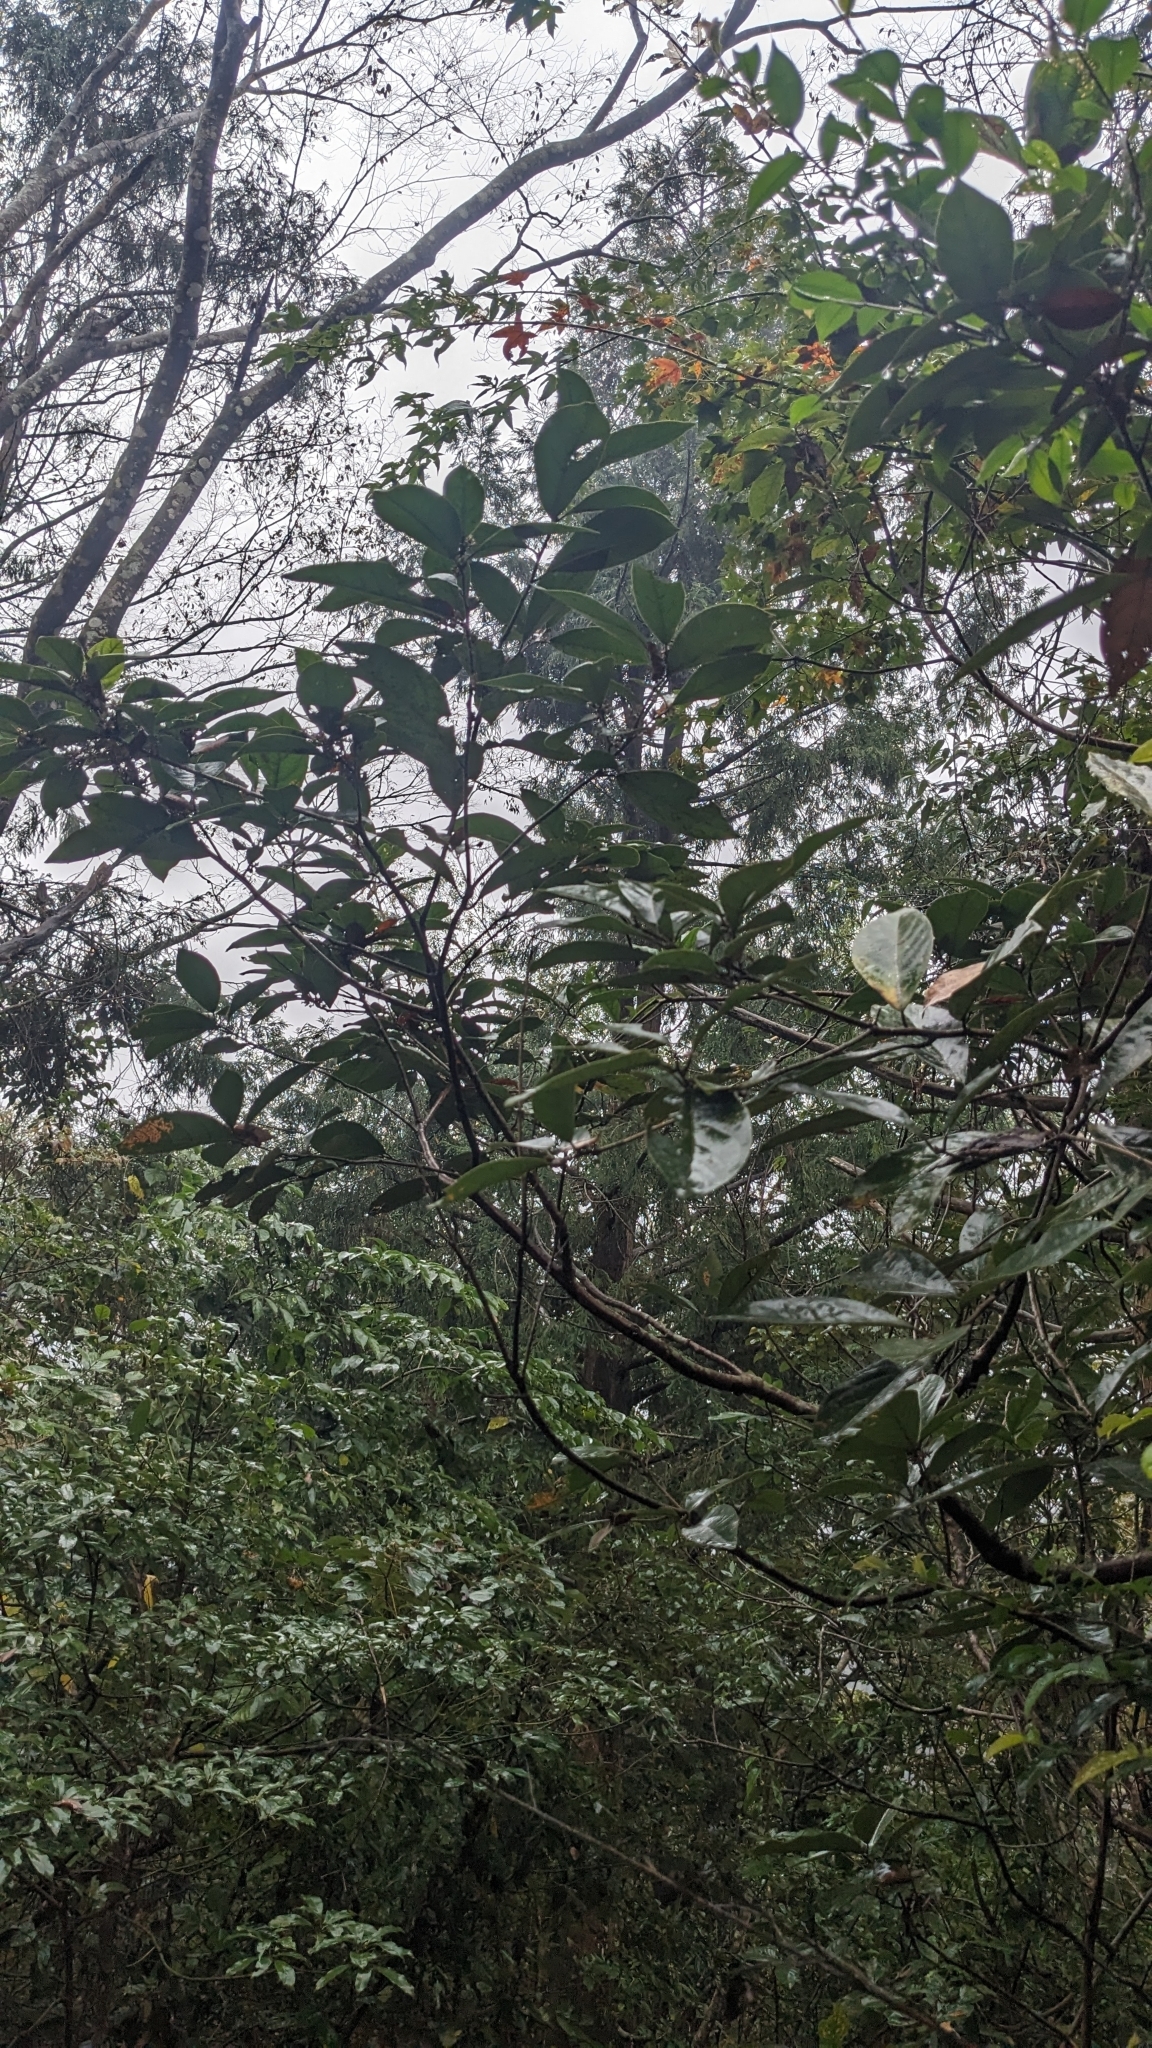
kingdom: Plantae
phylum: Tracheophyta
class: Magnoliopsida
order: Laurales
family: Lauraceae
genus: Litsea
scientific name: Litsea akoensis
